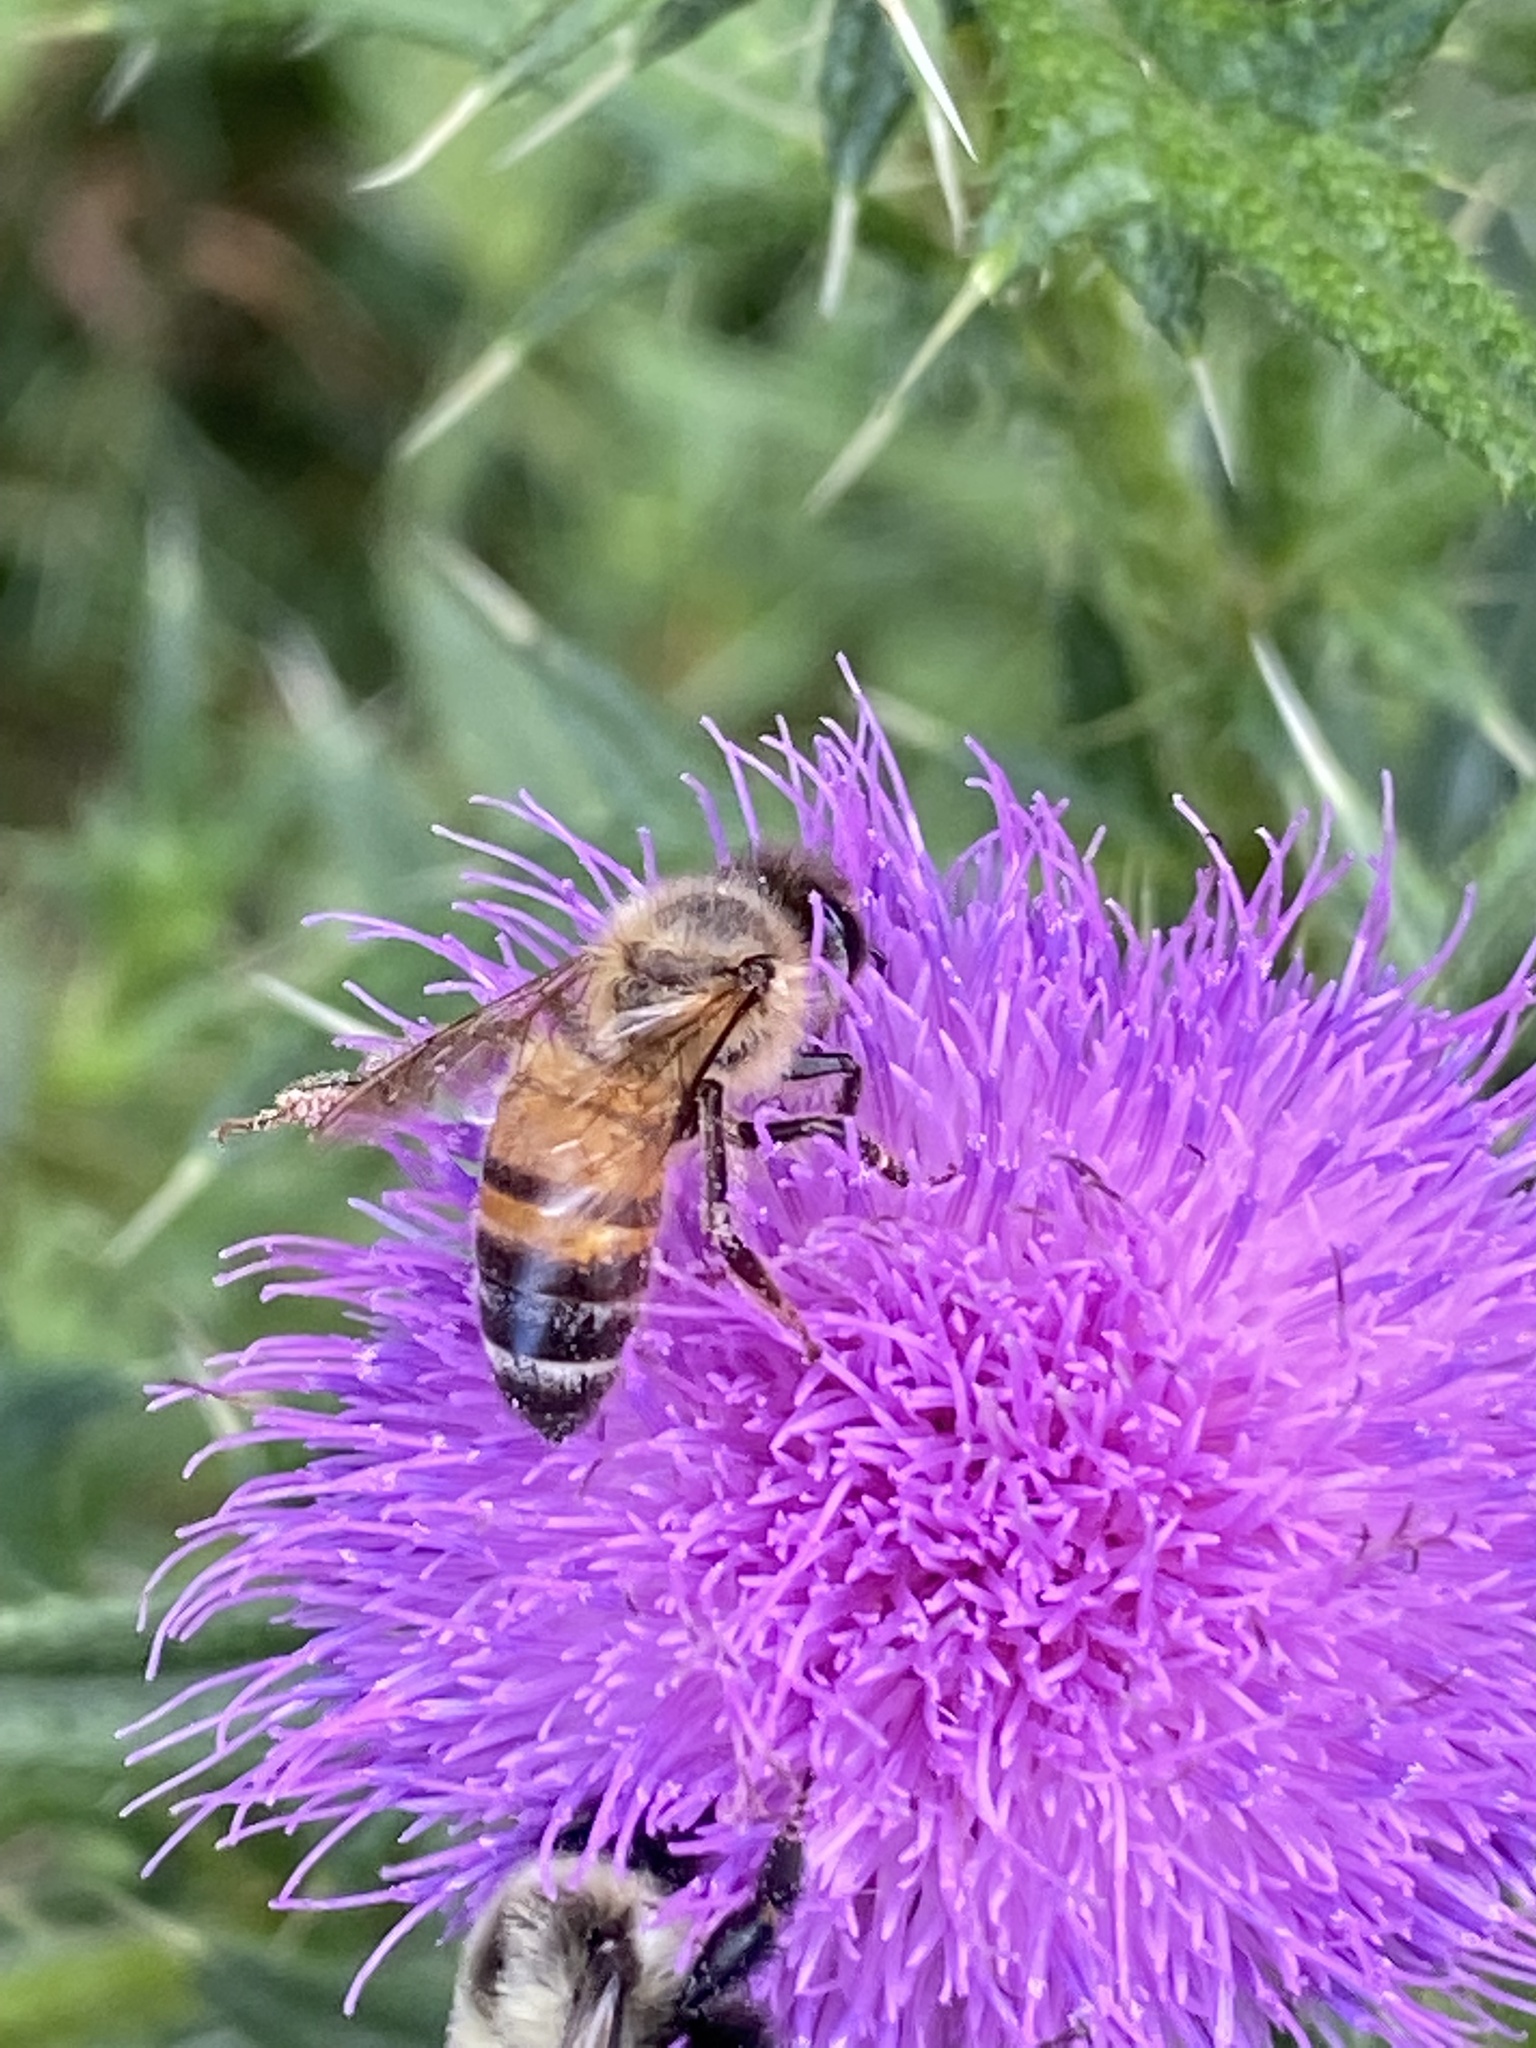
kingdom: Animalia
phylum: Arthropoda
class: Insecta
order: Hymenoptera
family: Apidae
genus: Apis
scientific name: Apis mellifera
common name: Honey bee
